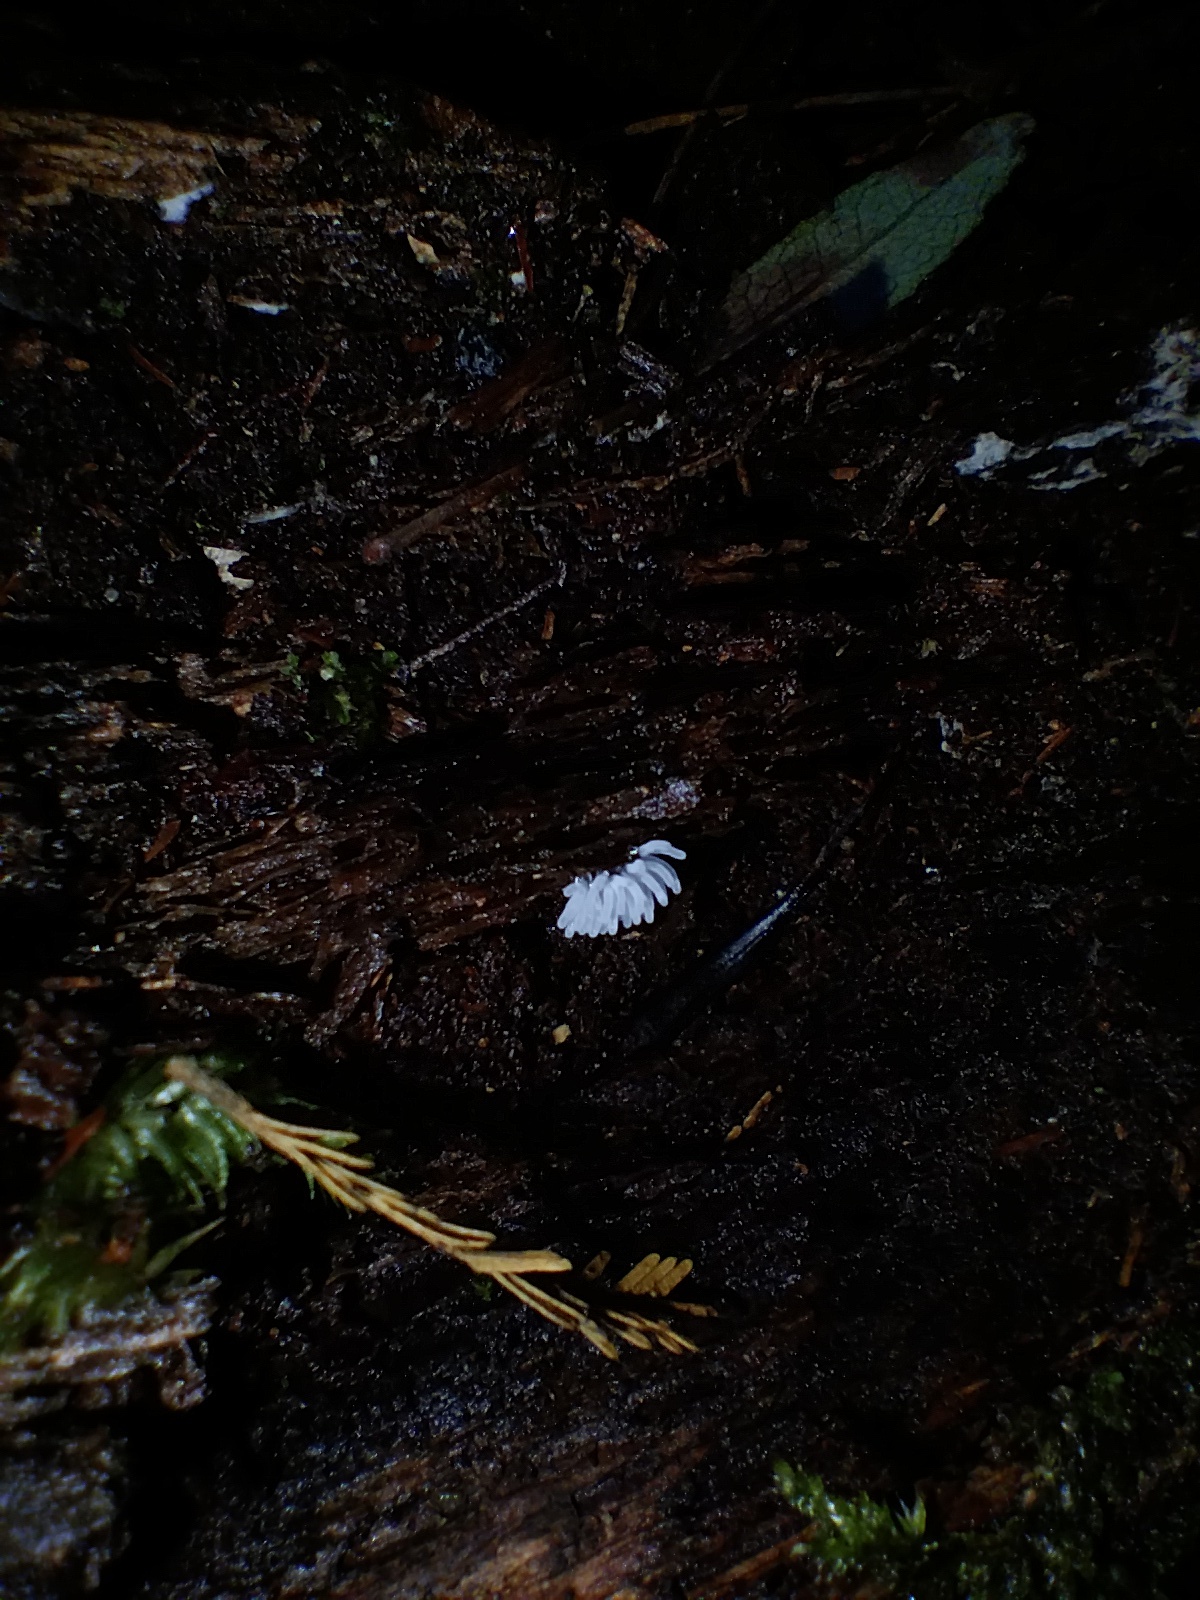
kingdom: Protozoa
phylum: Mycetozoa
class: Protosteliomycetes
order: Ceratiomyxales
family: Ceratiomyxaceae
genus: Ceratiomyxa
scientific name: Ceratiomyxa fruticulosa
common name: Honeycomb coral slime mold
